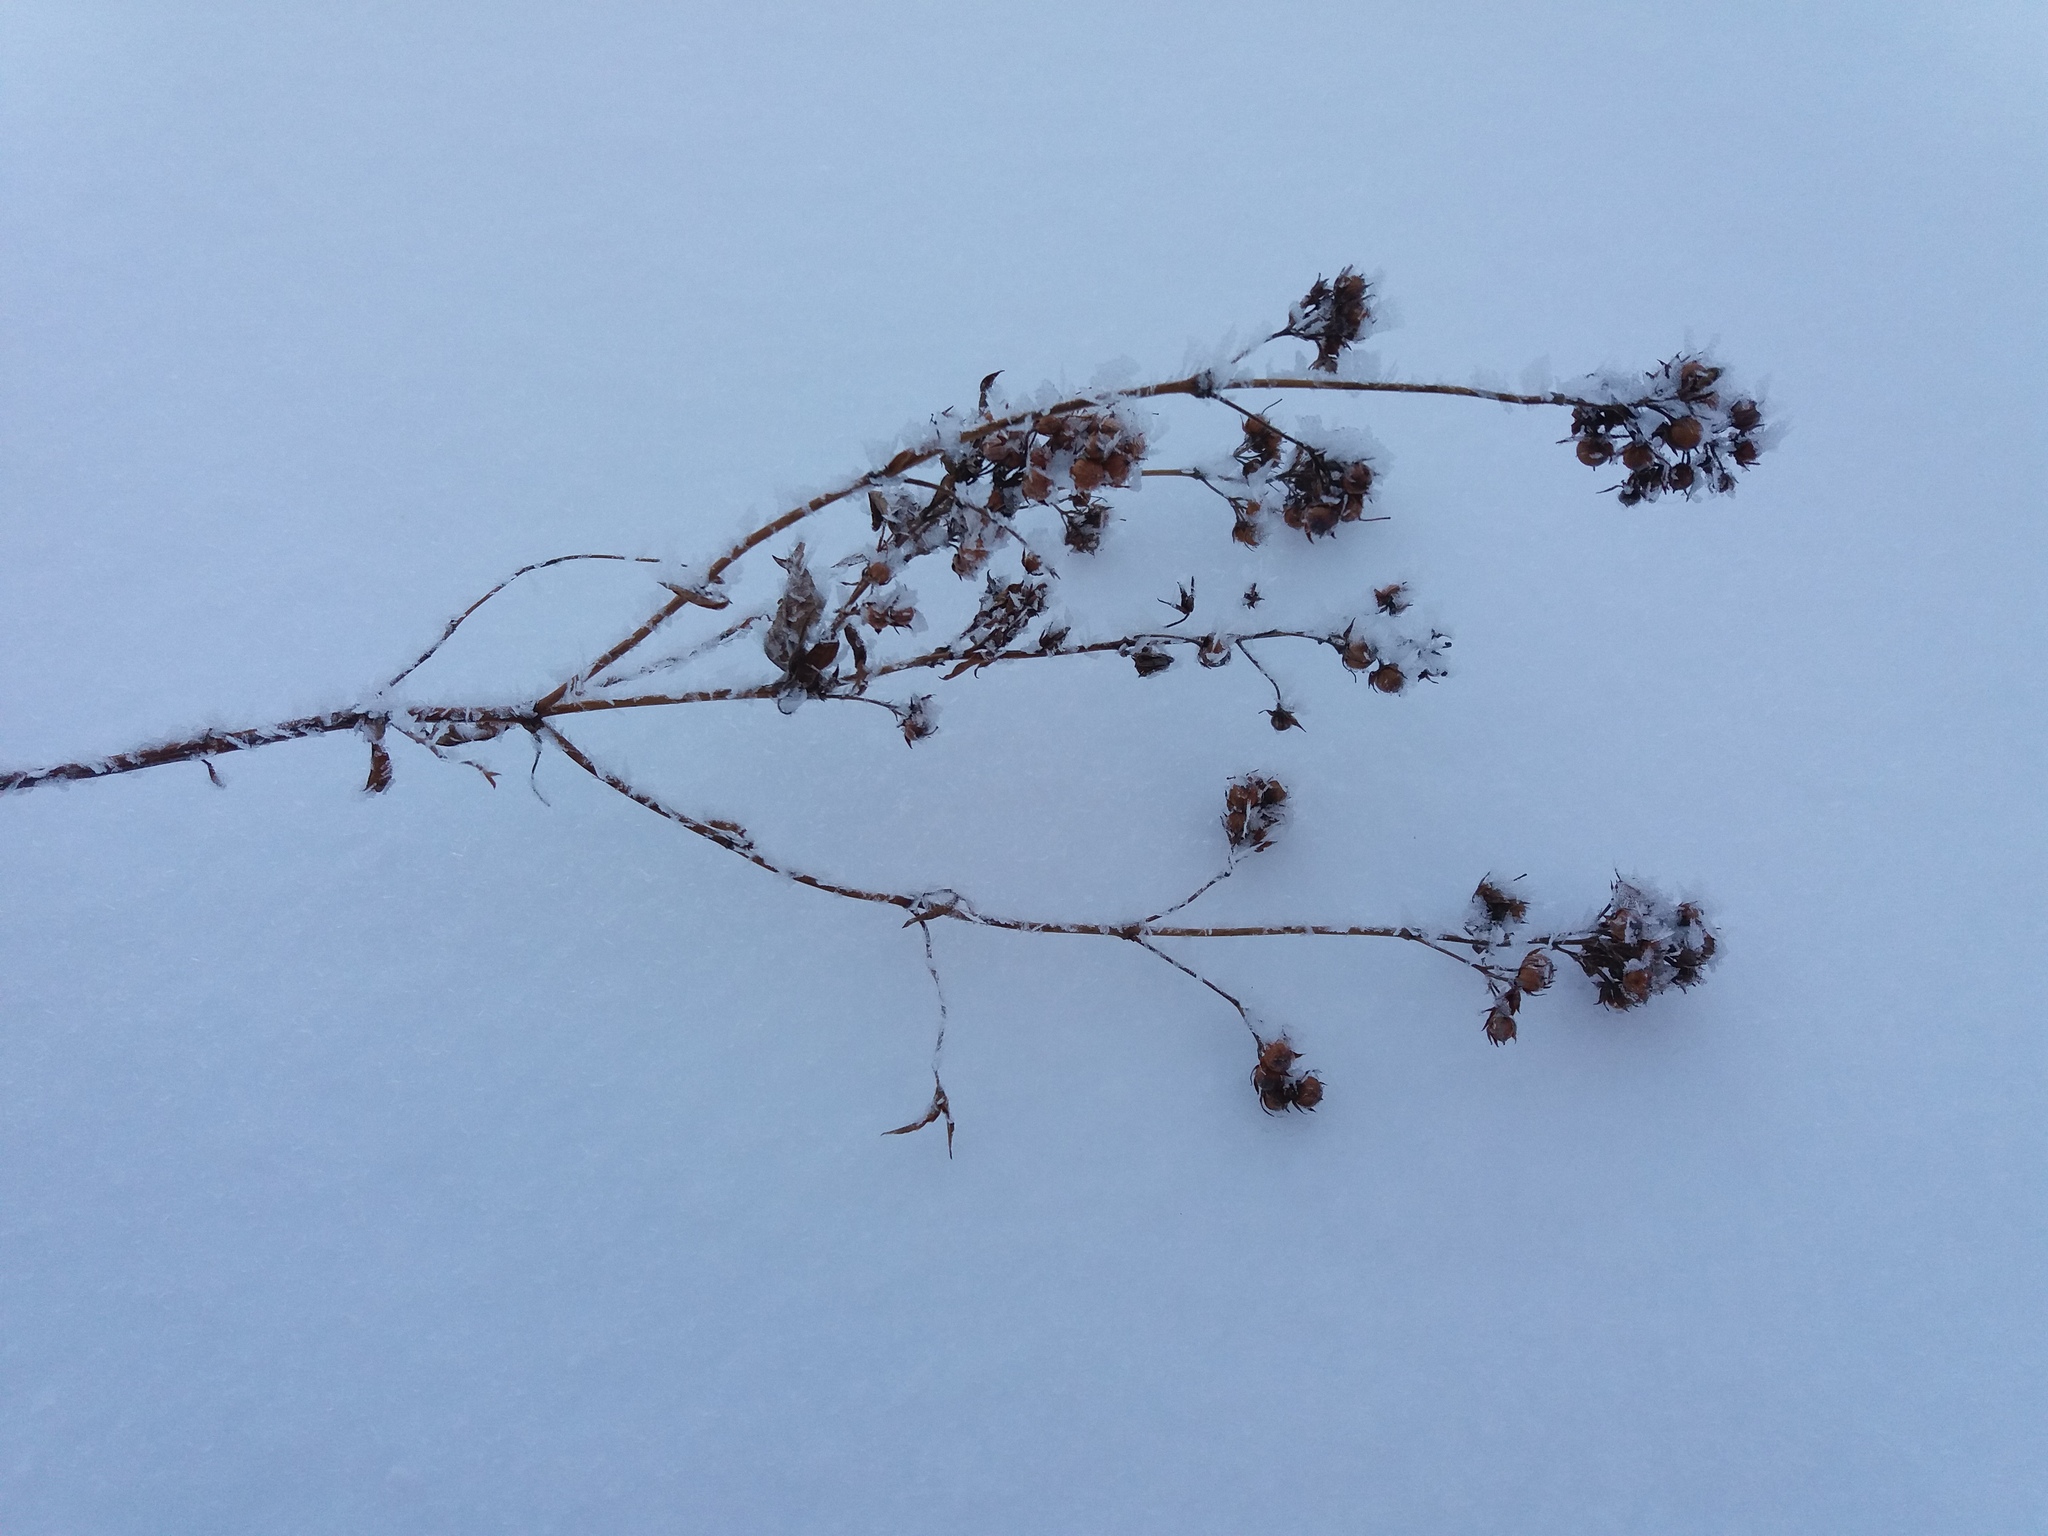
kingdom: Plantae
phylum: Tracheophyta
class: Magnoliopsida
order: Ericales
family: Primulaceae
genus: Lysimachia
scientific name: Lysimachia vulgaris
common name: Yellow loosestrife
